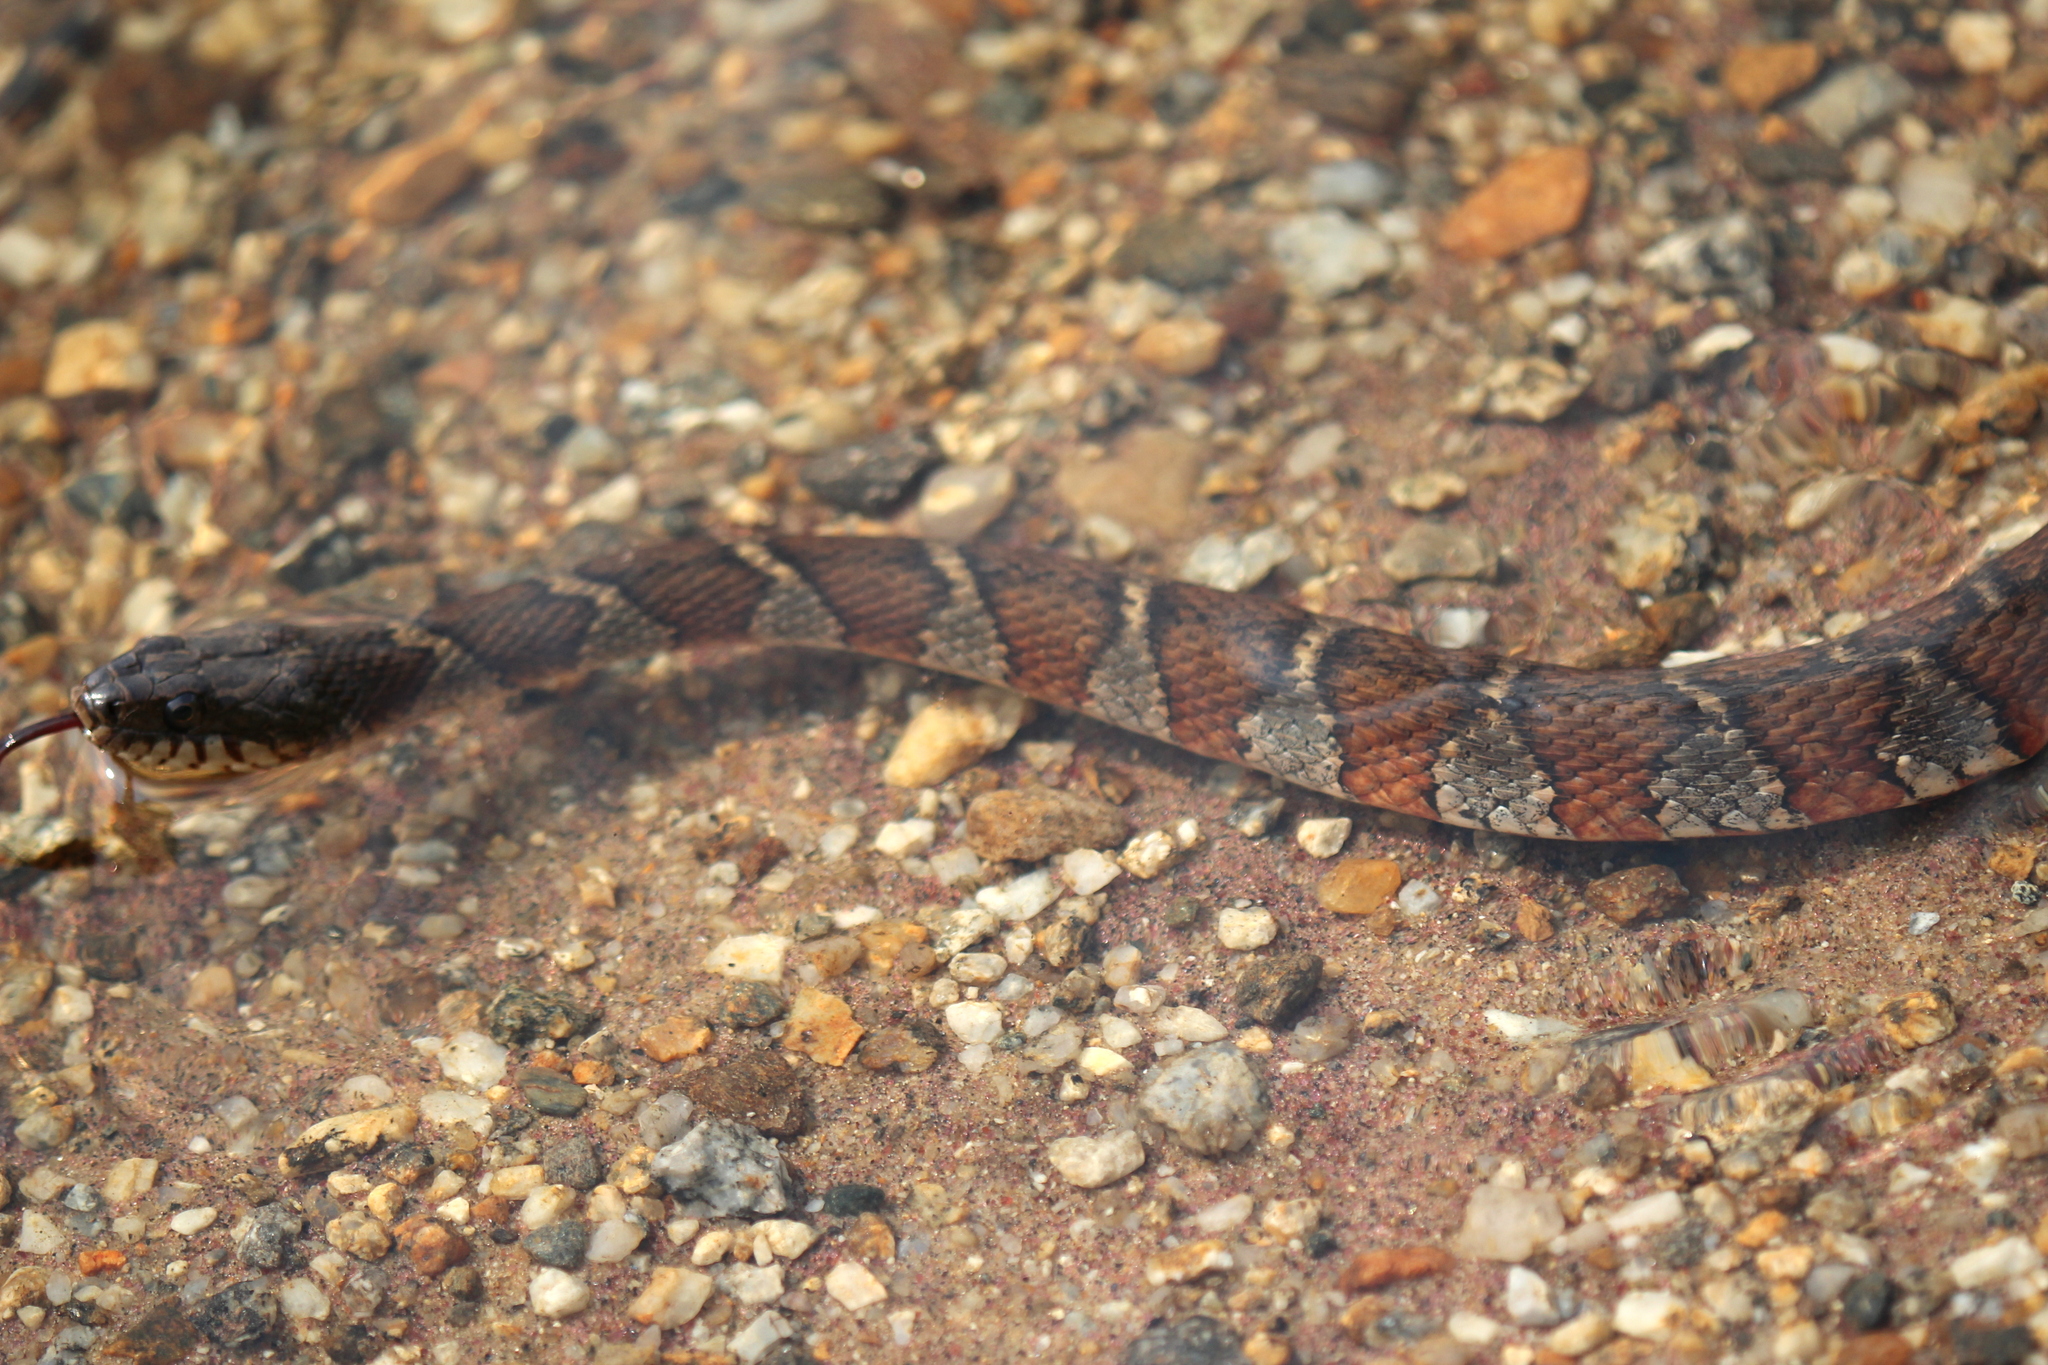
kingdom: Animalia
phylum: Chordata
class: Squamata
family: Colubridae
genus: Nerodia
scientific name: Nerodia sipedon
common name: Northern water snake
